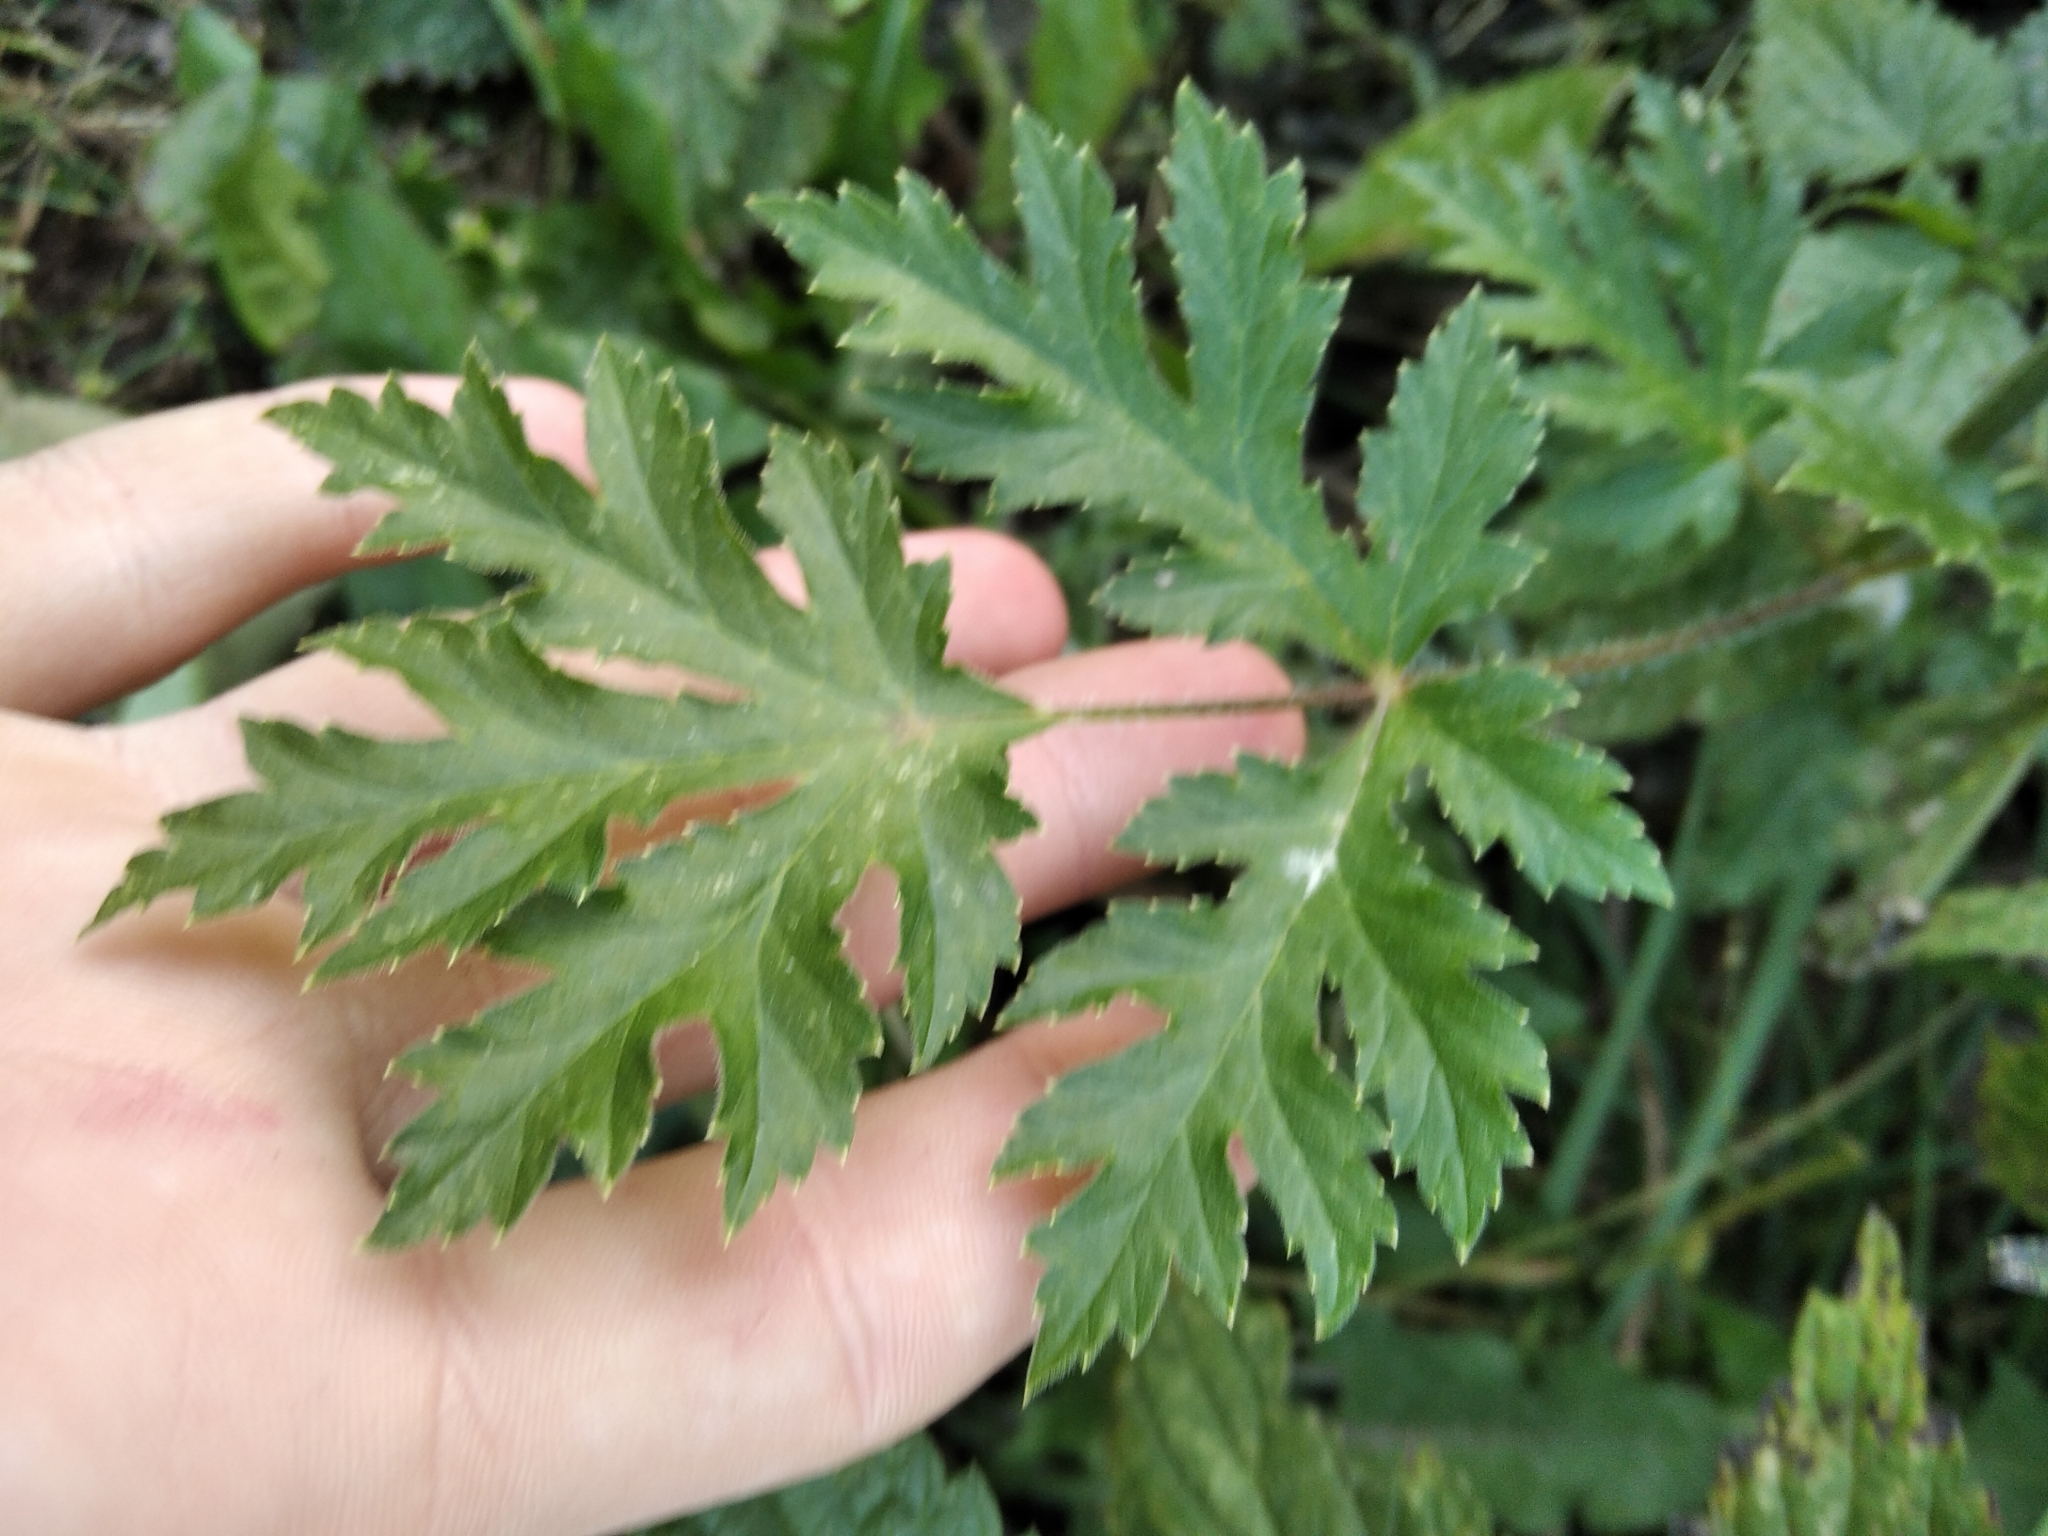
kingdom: Plantae
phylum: Tracheophyta
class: Magnoliopsida
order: Apiales
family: Apiaceae
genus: Heracleum
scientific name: Heracleum sphondylium
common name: Hogweed
